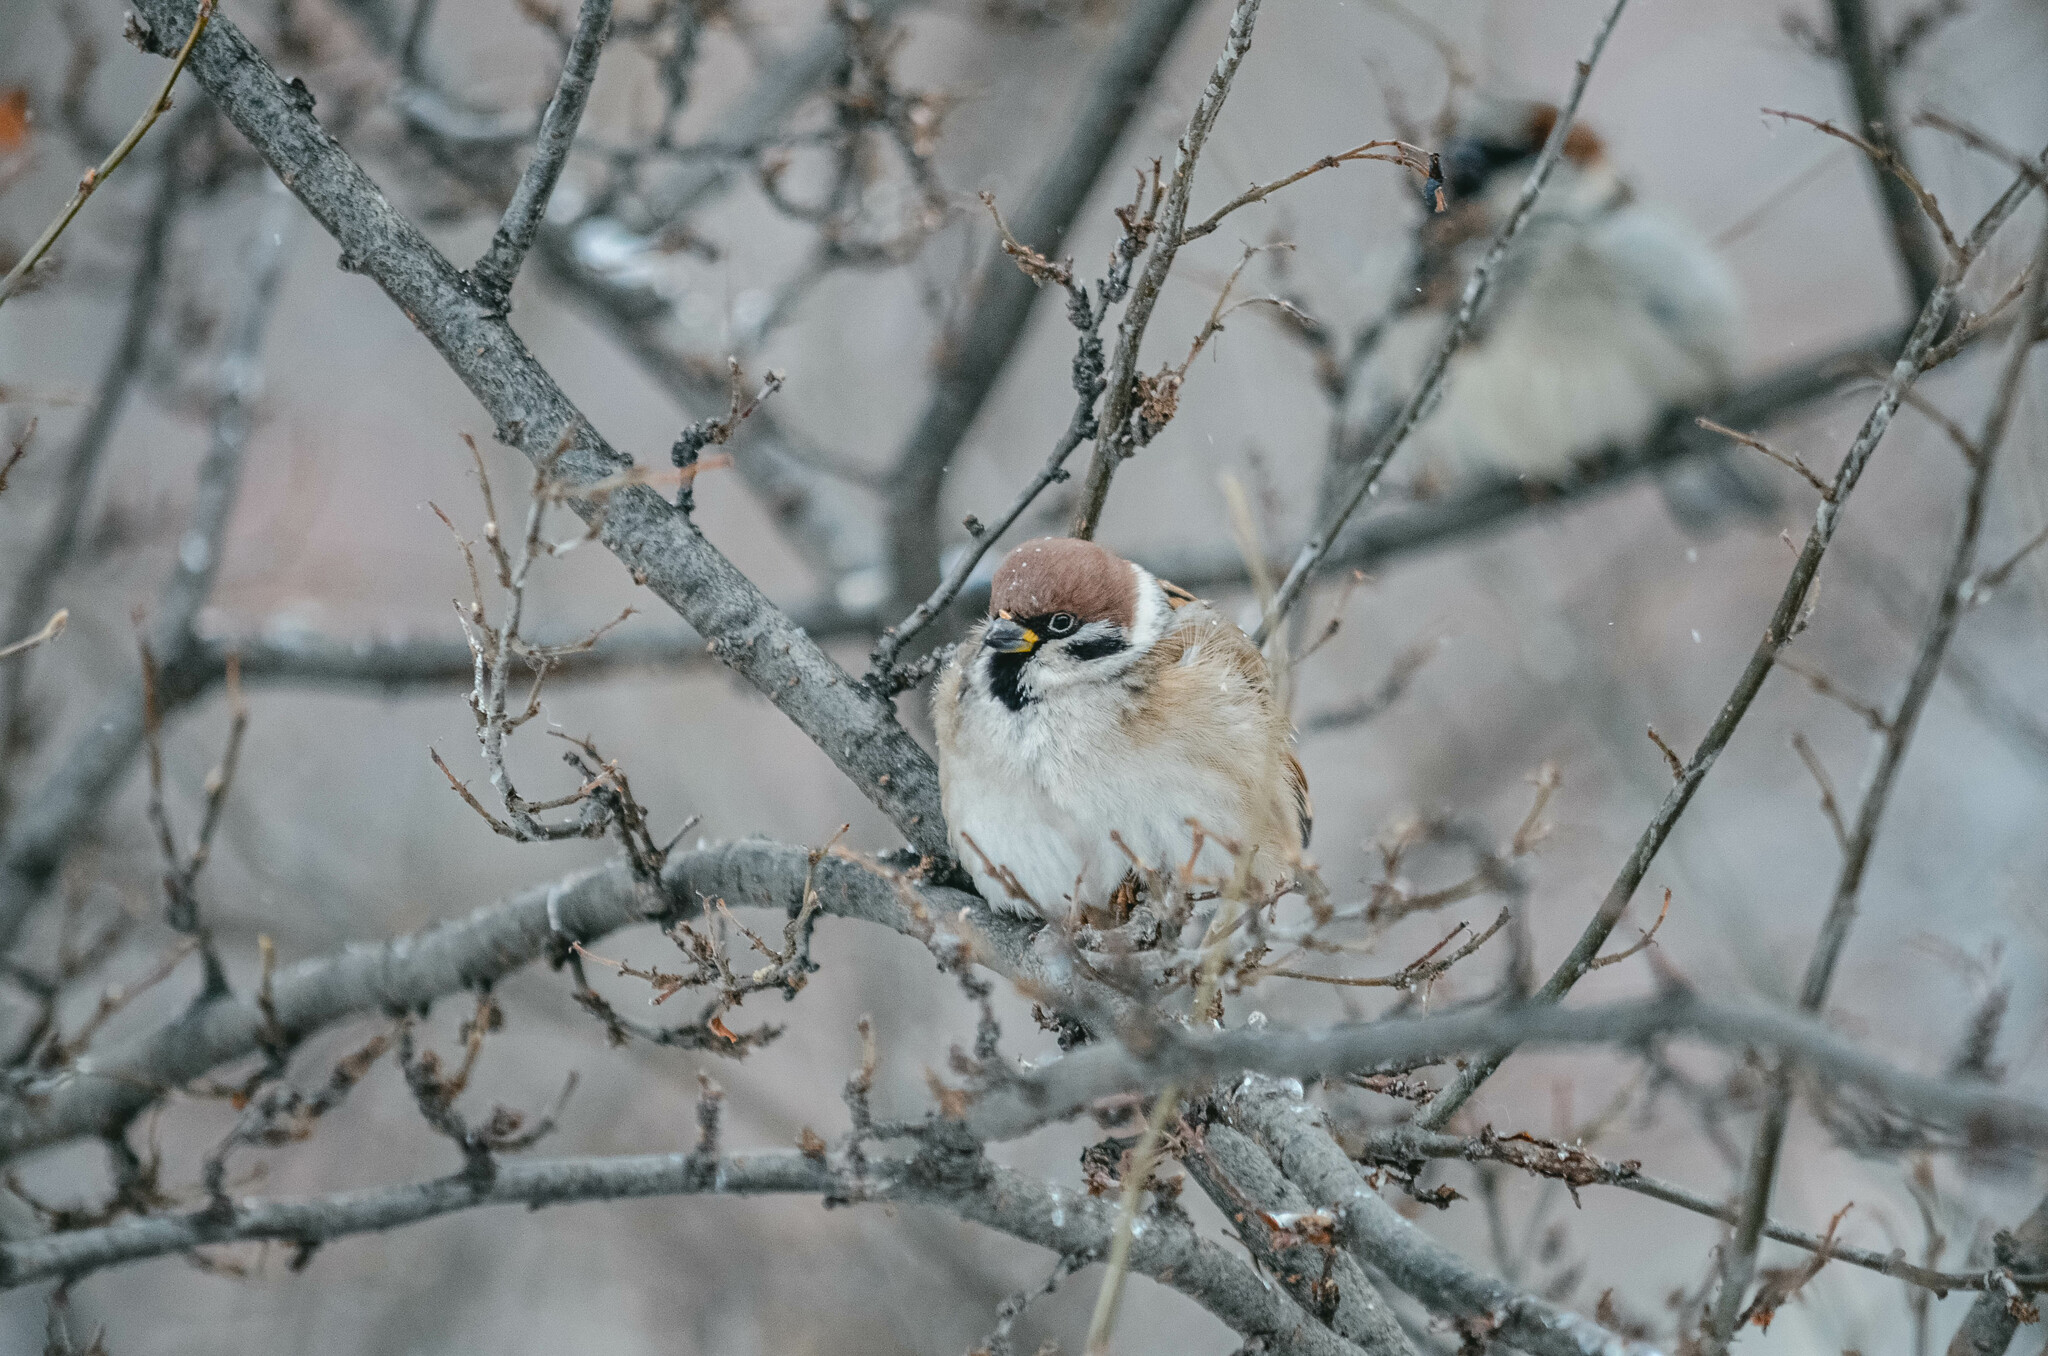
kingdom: Animalia
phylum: Chordata
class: Aves
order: Passeriformes
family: Passeridae
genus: Passer
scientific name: Passer montanus
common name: Eurasian tree sparrow
